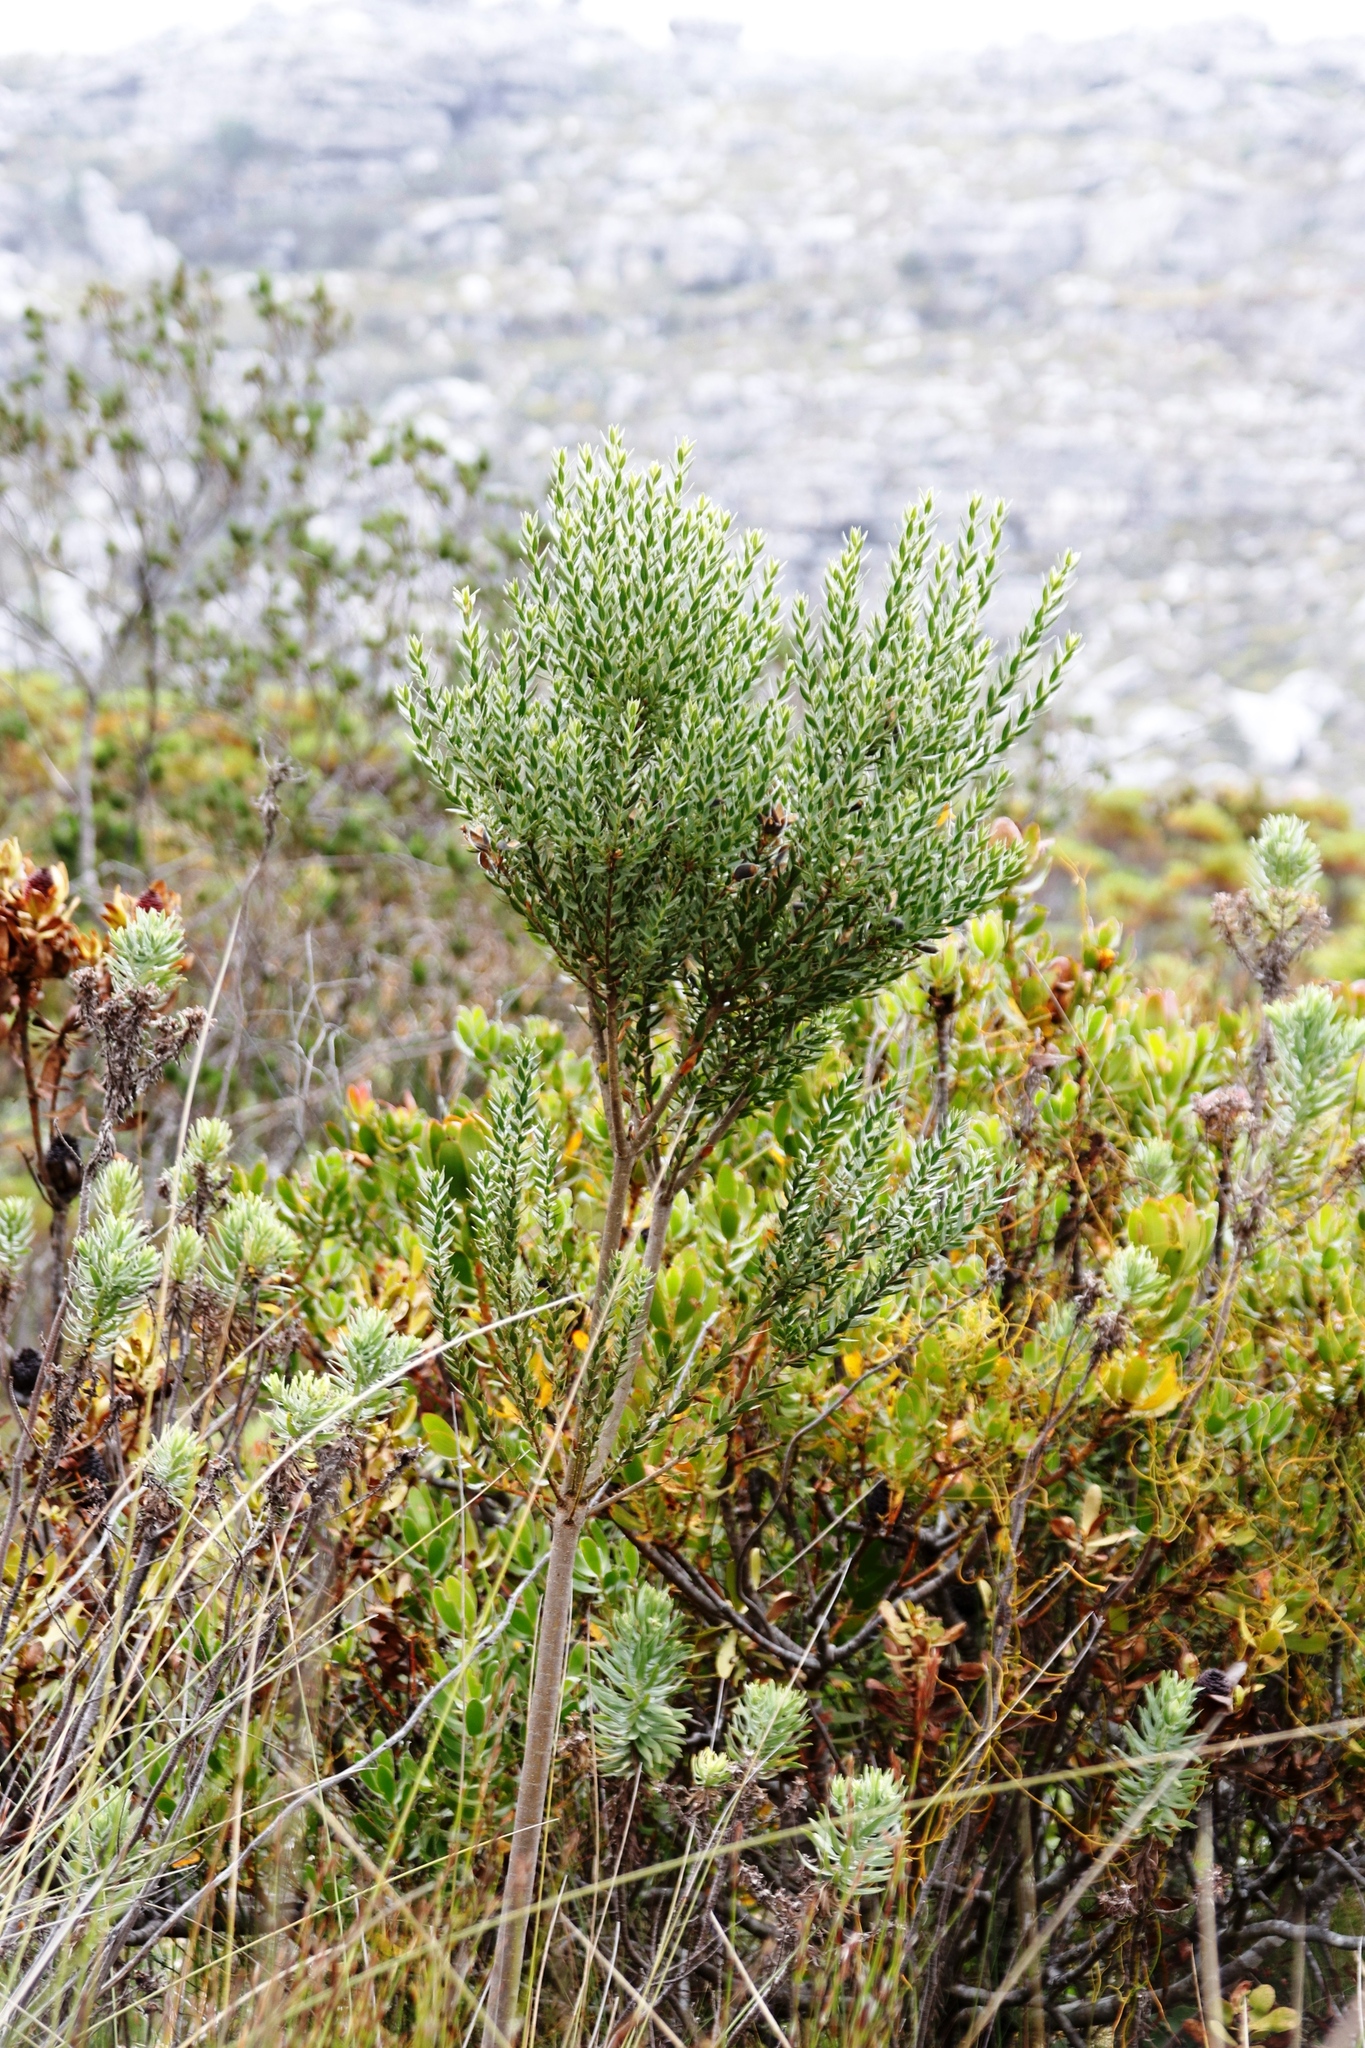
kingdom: Plantae
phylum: Tracheophyta
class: Magnoliopsida
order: Fabales
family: Fabaceae
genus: Liparia
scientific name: Liparia laevigata
